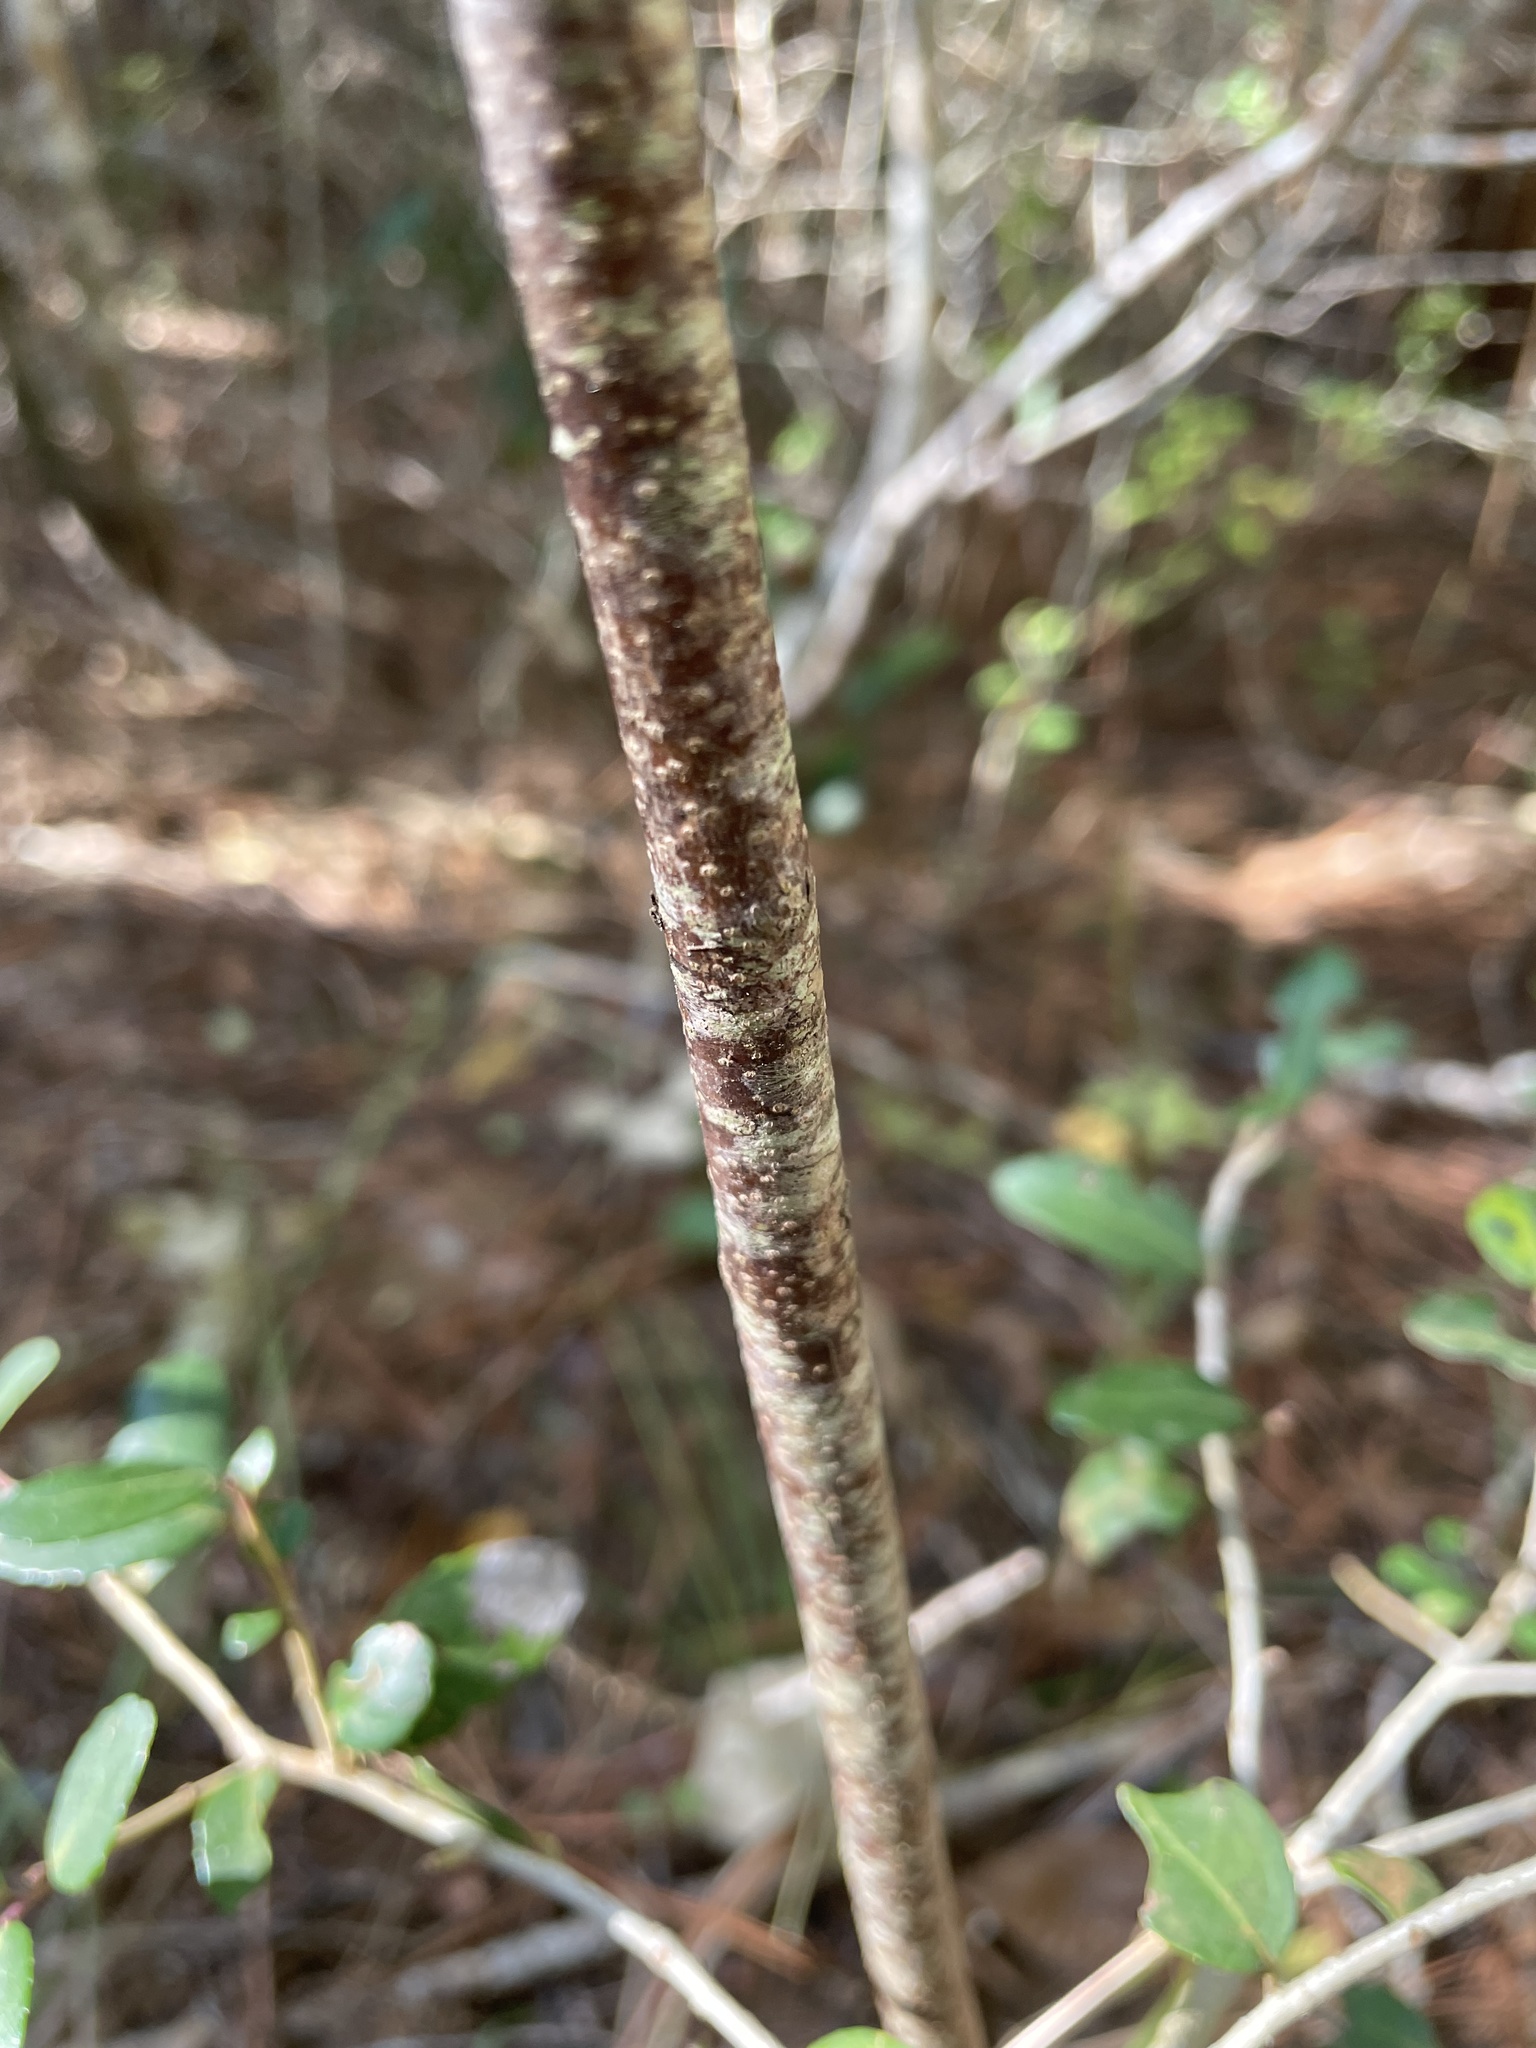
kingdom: Plantae
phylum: Tracheophyta
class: Magnoliopsida
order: Sapindales
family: Rutaceae
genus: Ptelea
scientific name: Ptelea trifoliata
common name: Common hop-tree
